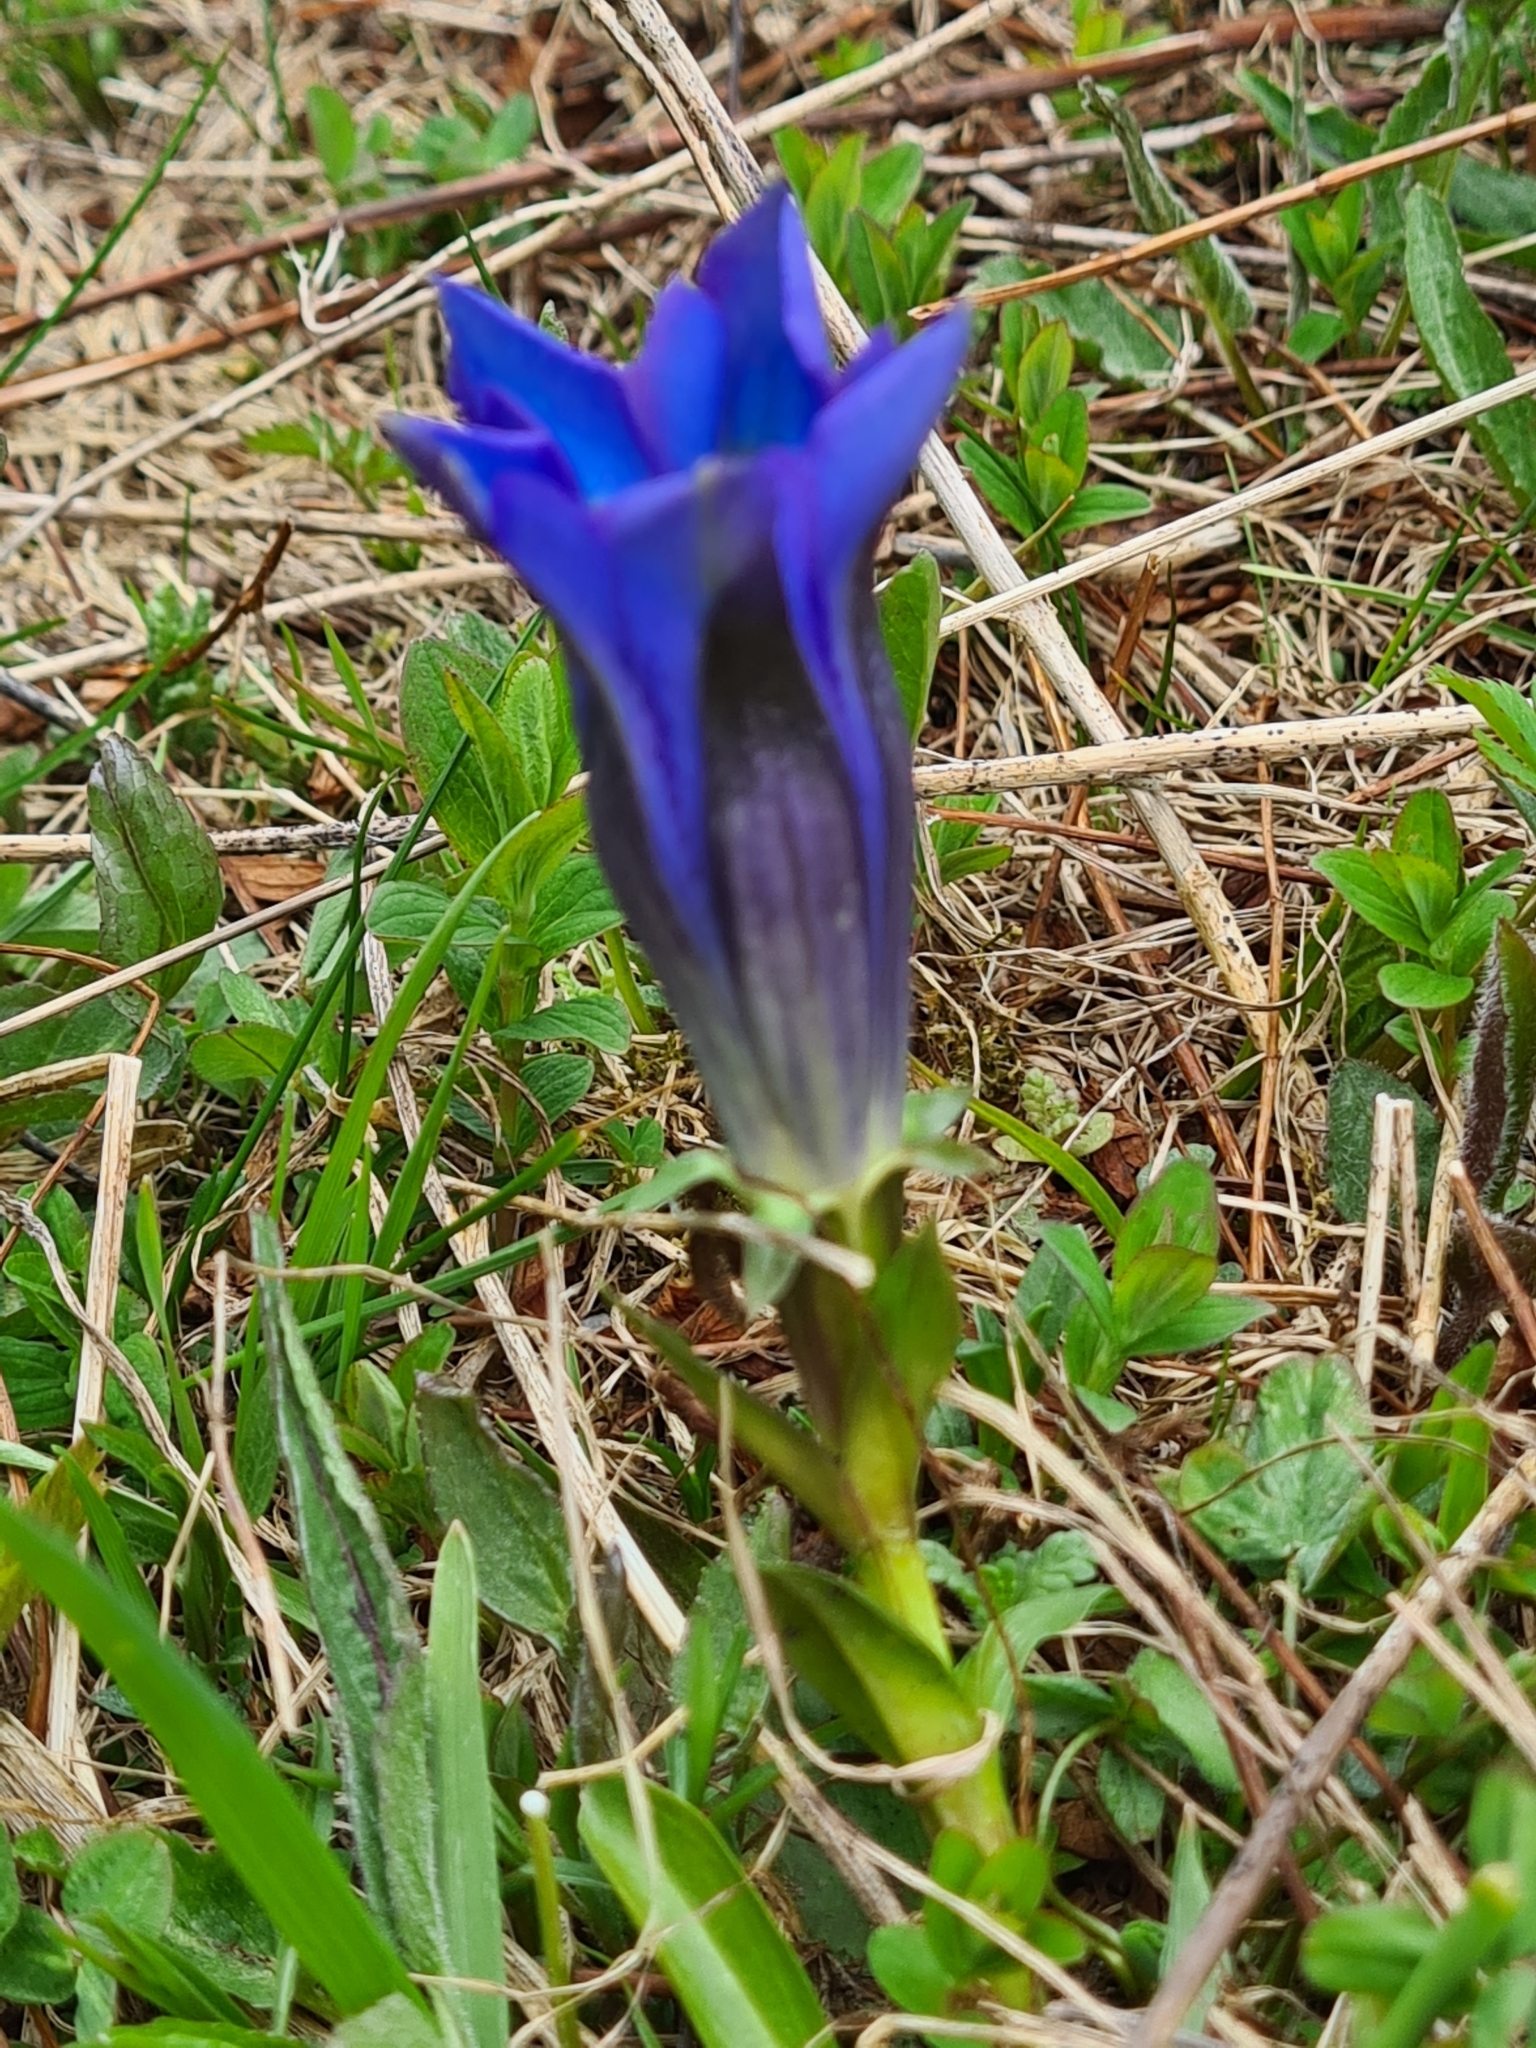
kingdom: Plantae
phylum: Tracheophyta
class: Magnoliopsida
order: Gentianales
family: Gentianaceae
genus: Gentiana
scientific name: Gentiana acaulis
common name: Trumpet gentian
